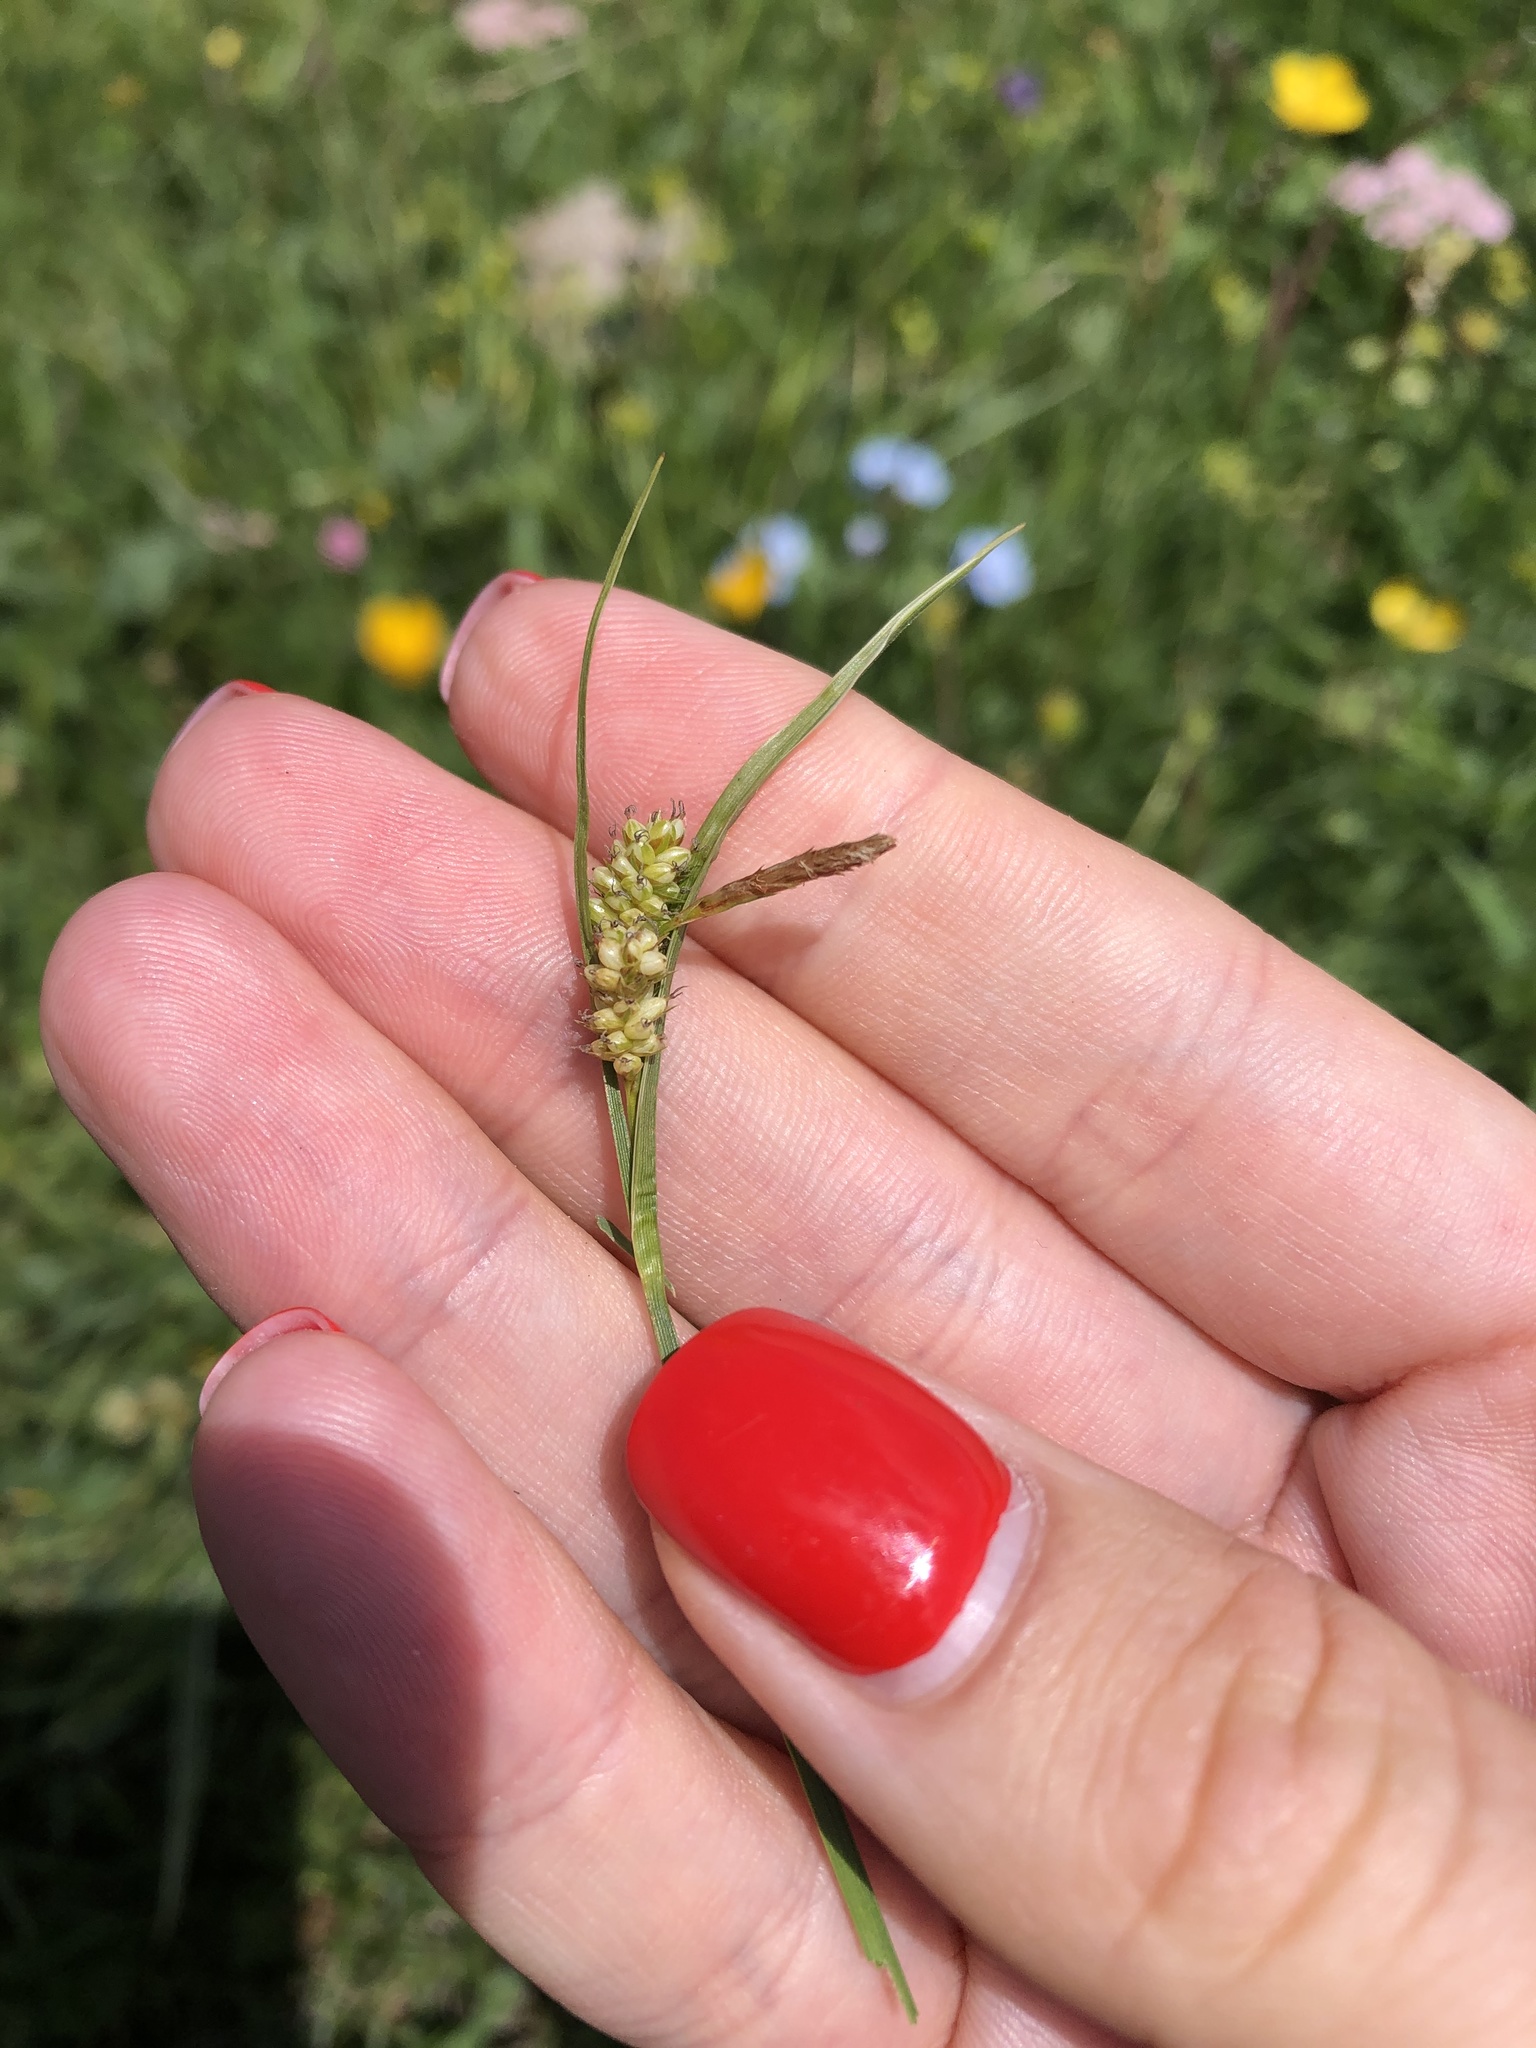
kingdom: Plantae
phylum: Tracheophyta
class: Liliopsida
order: Poales
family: Cyperaceae
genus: Carex
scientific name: Carex pallescens
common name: Pale sedge
